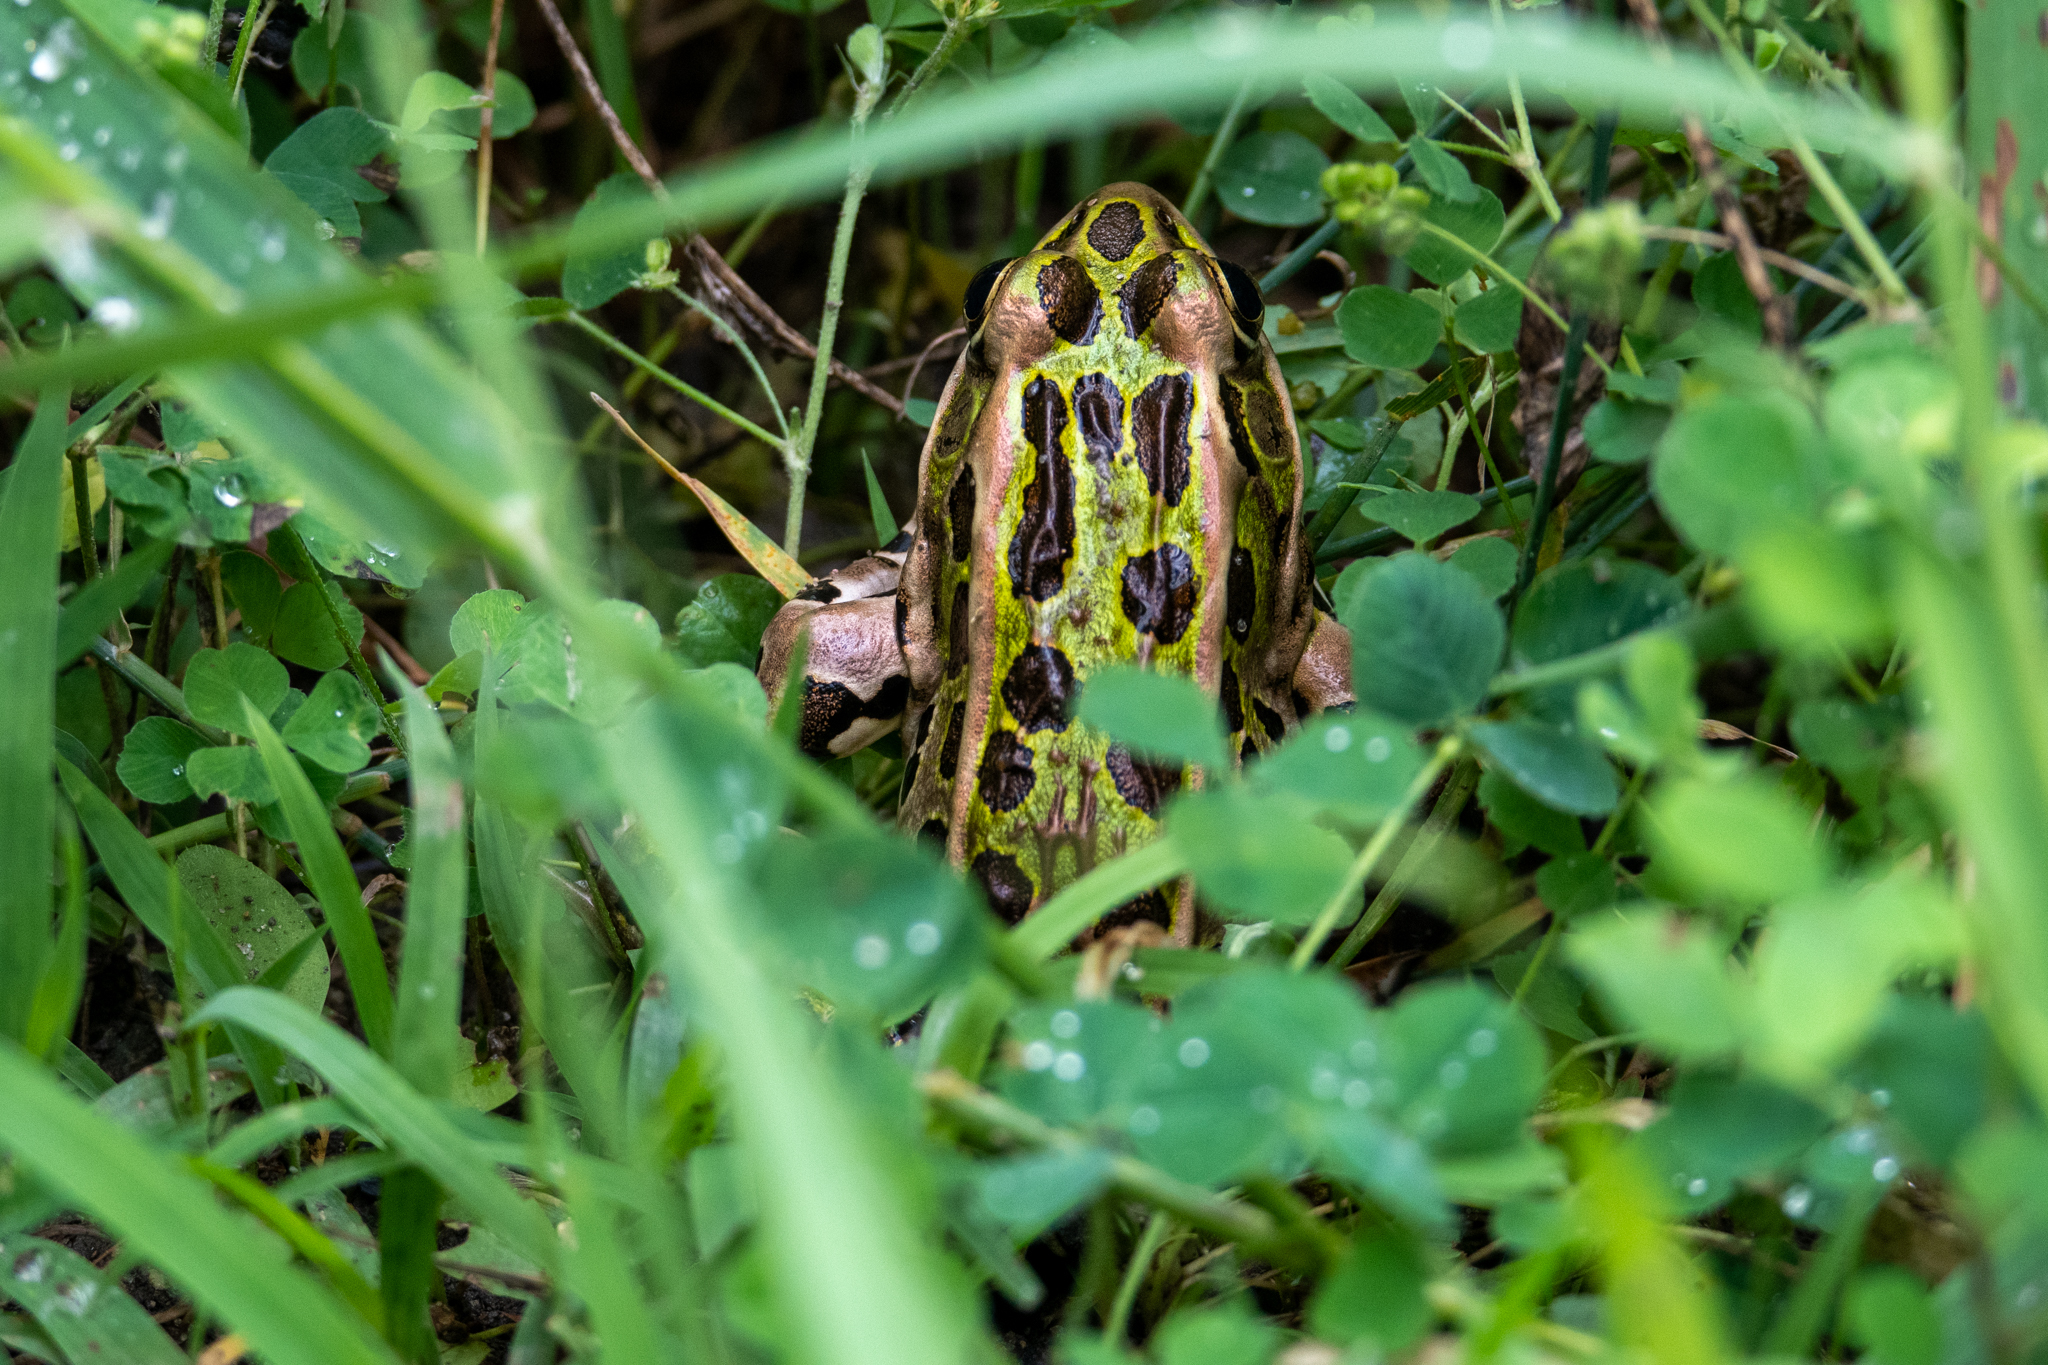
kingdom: Animalia
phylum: Chordata
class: Amphibia
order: Anura
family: Ranidae
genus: Lithobates
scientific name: Lithobates pipiens
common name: Northern leopard frog
